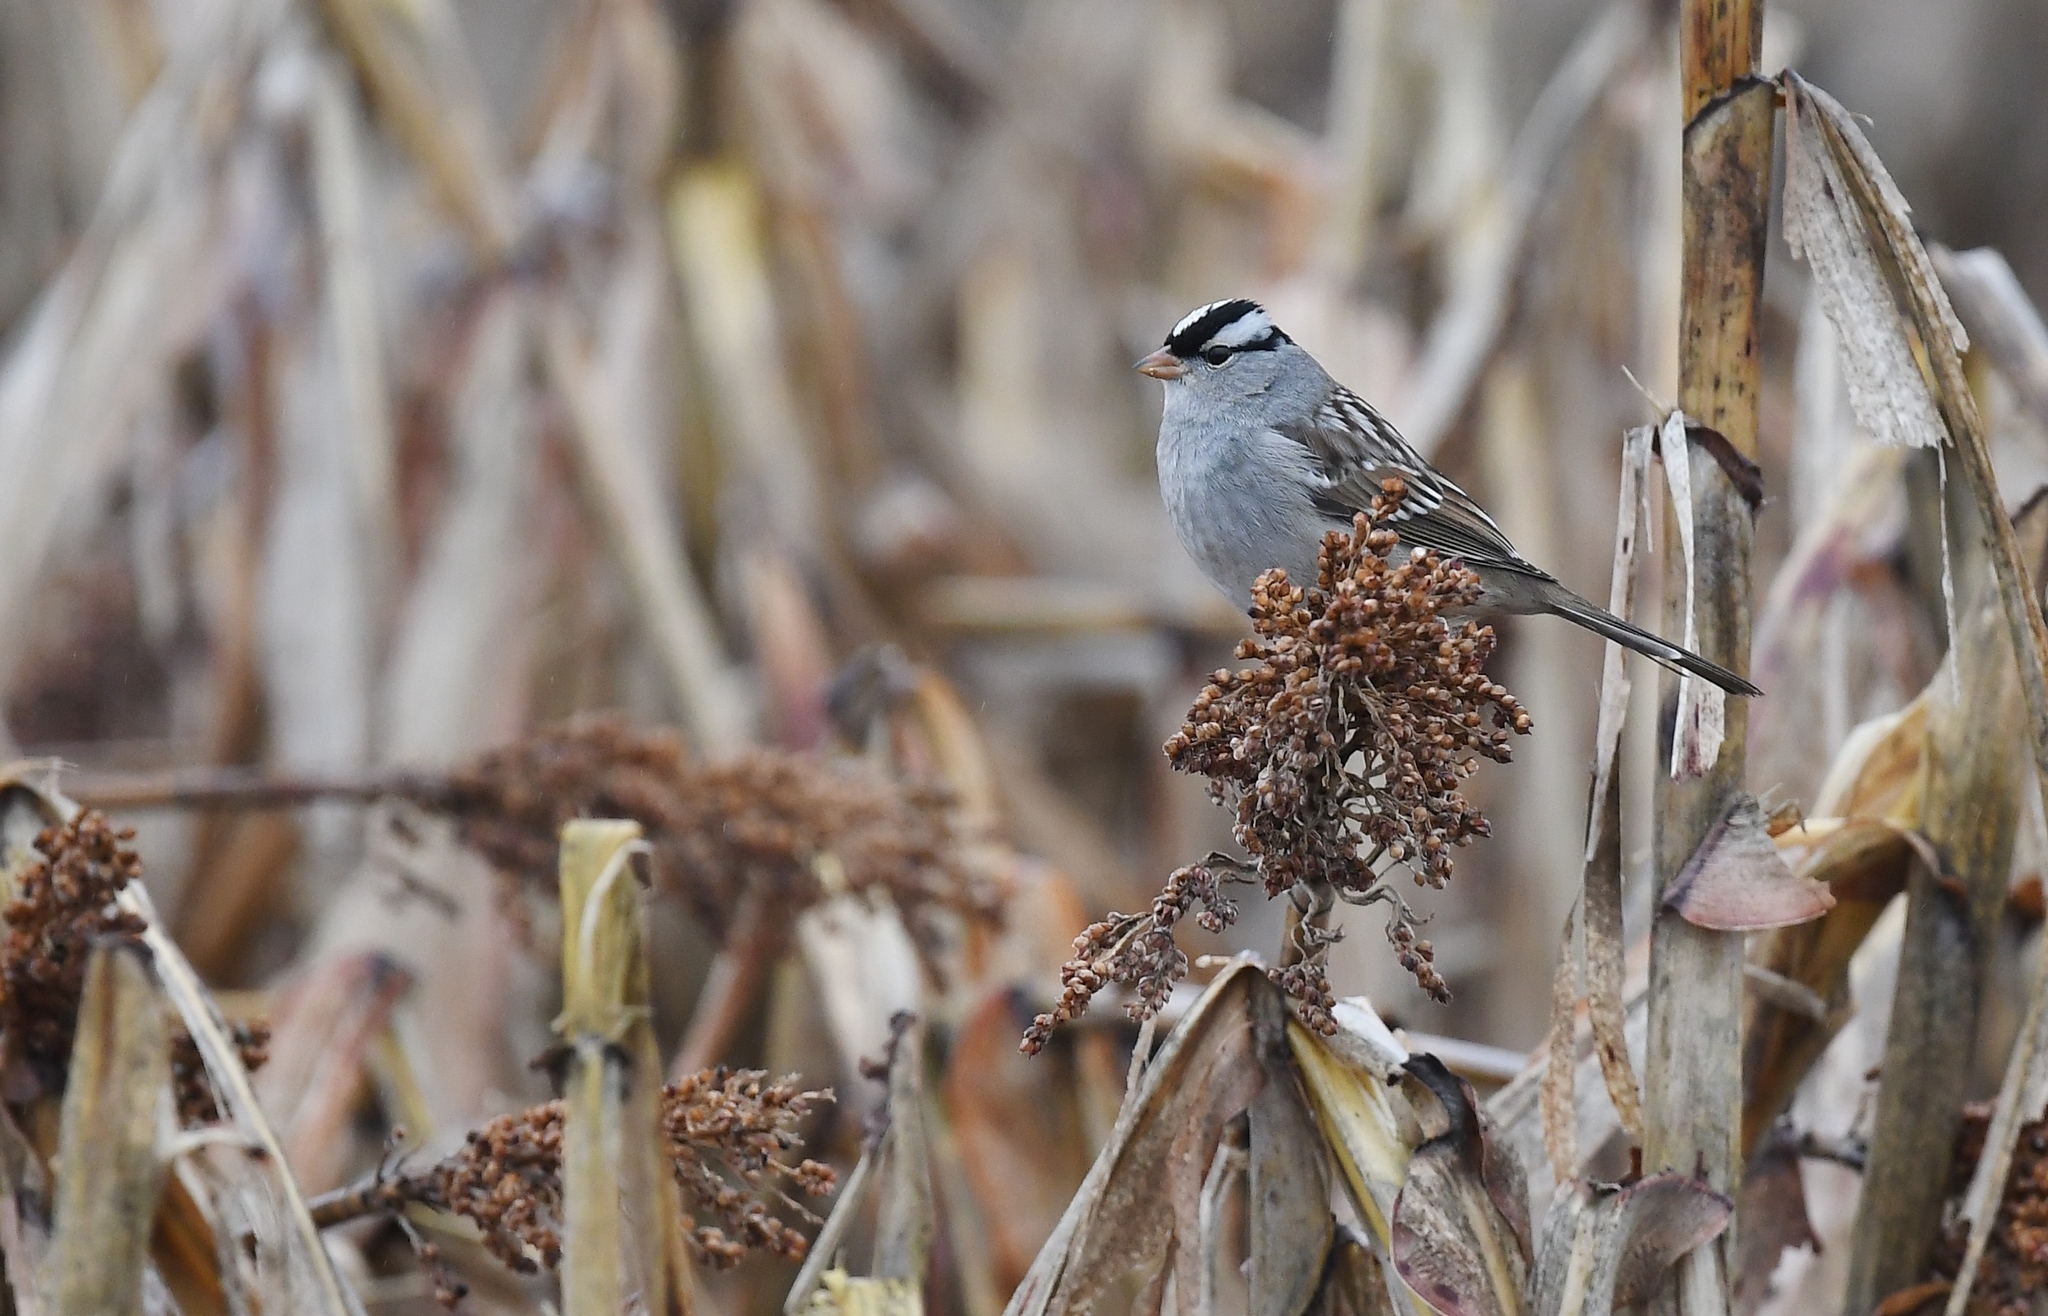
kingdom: Animalia
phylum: Chordata
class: Aves
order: Passeriformes
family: Passerellidae
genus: Zonotrichia
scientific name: Zonotrichia leucophrys
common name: White-crowned sparrow
